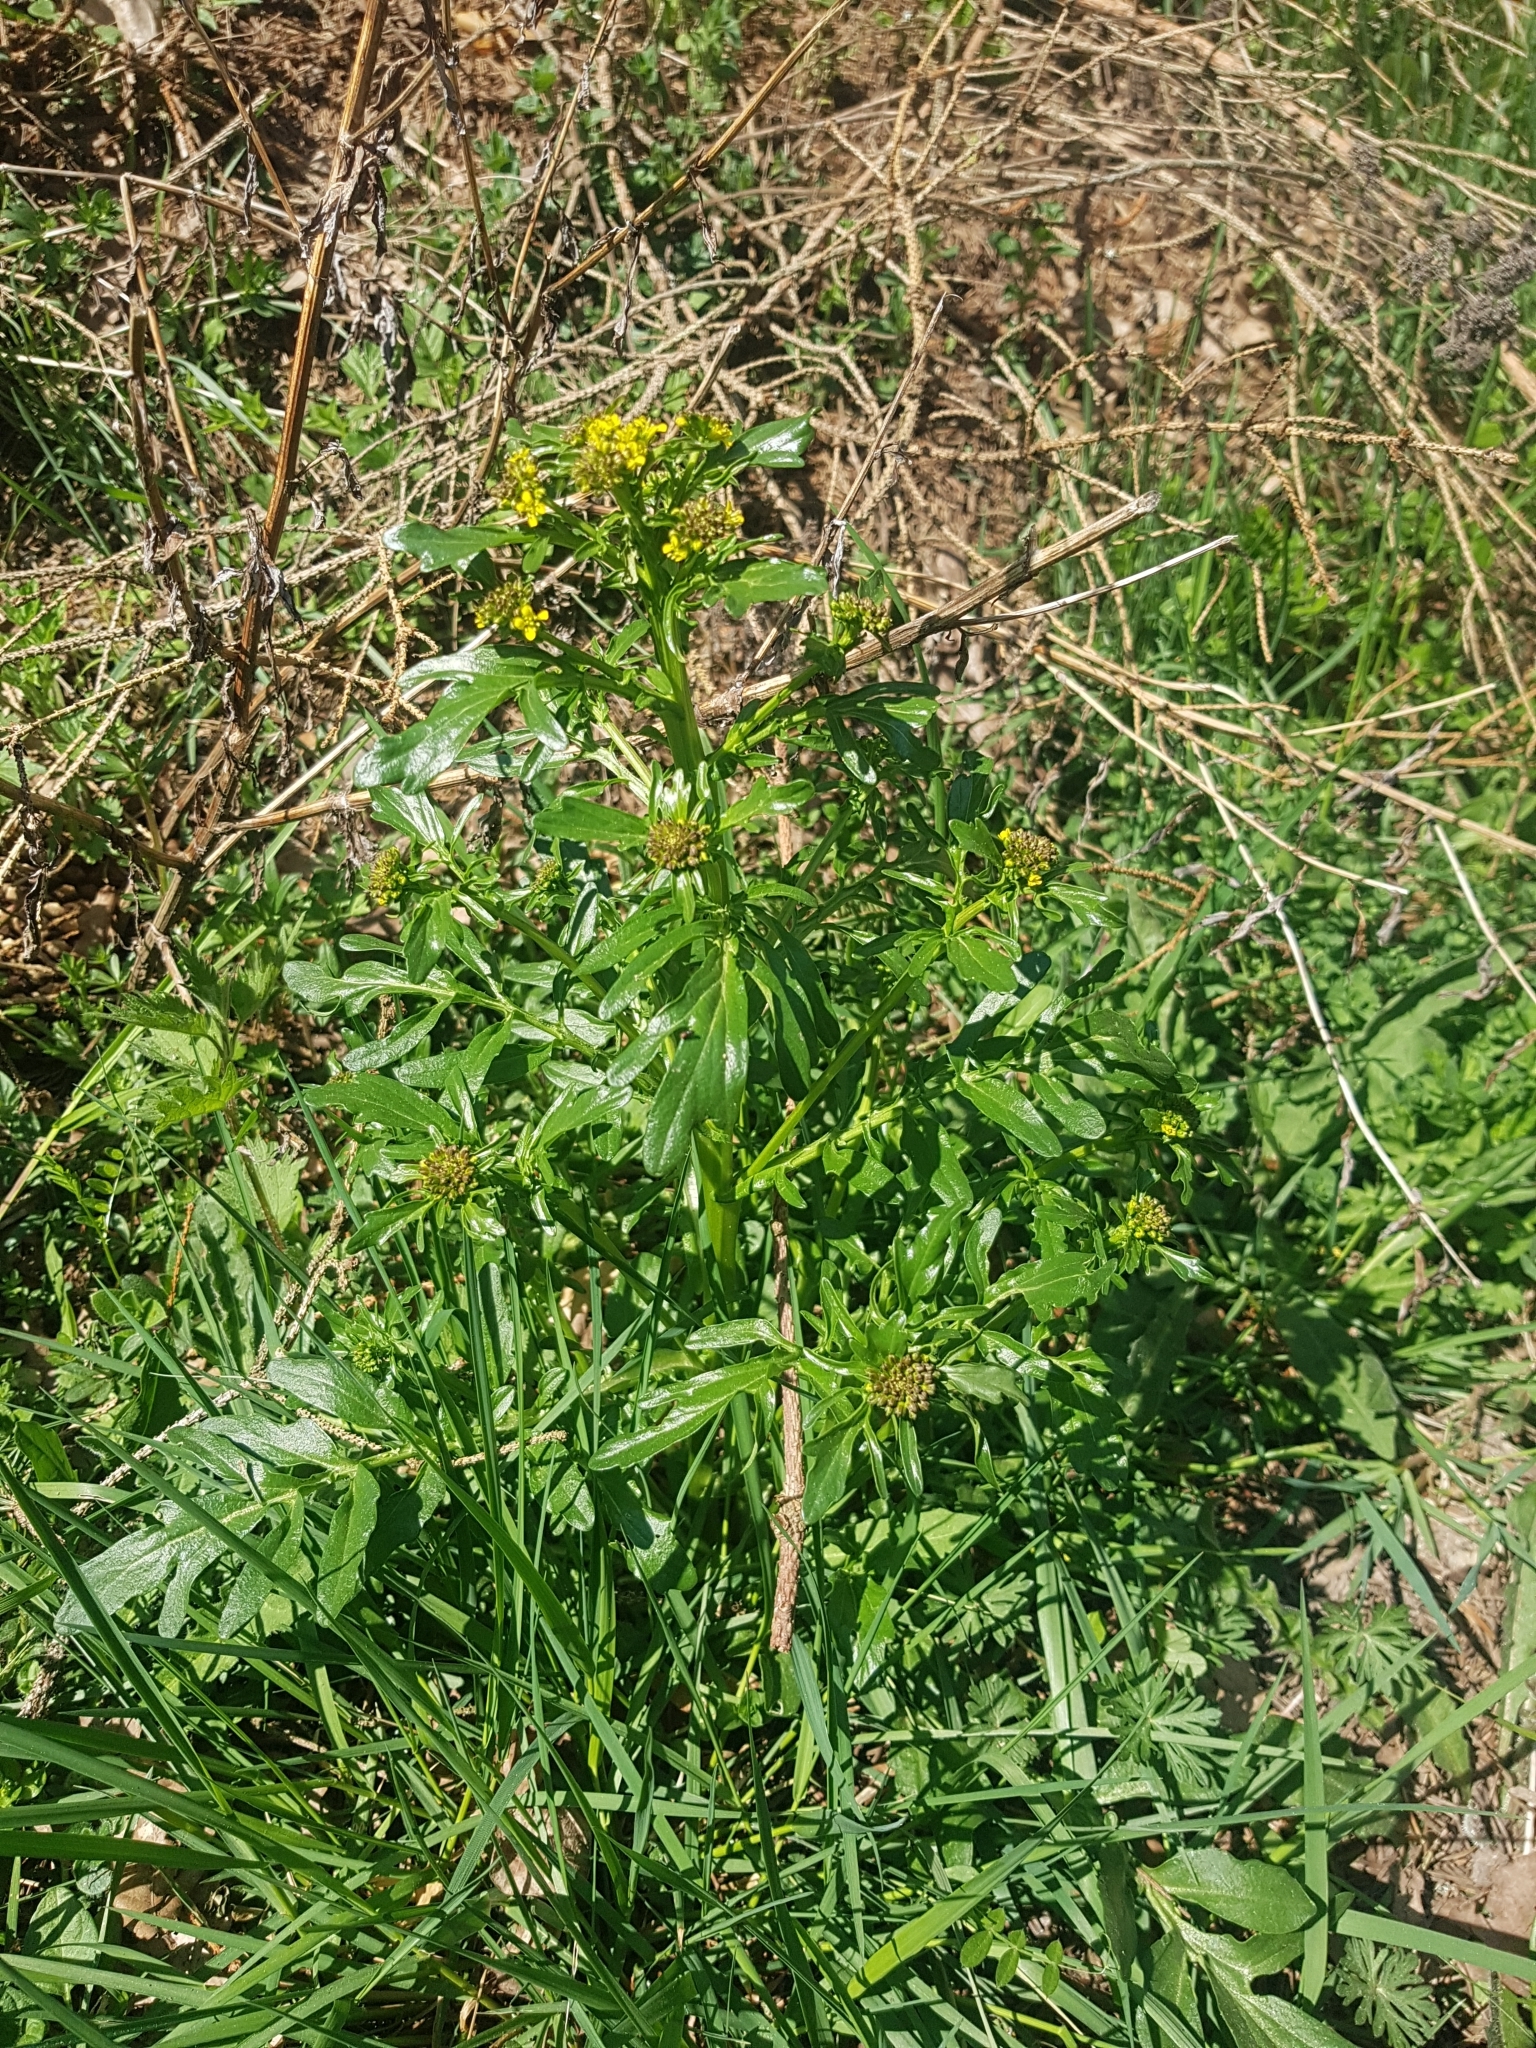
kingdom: Plantae
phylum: Tracheophyta
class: Magnoliopsida
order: Brassicales
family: Brassicaceae
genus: Barbarea
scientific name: Barbarea vulgaris
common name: Cressy-greens
